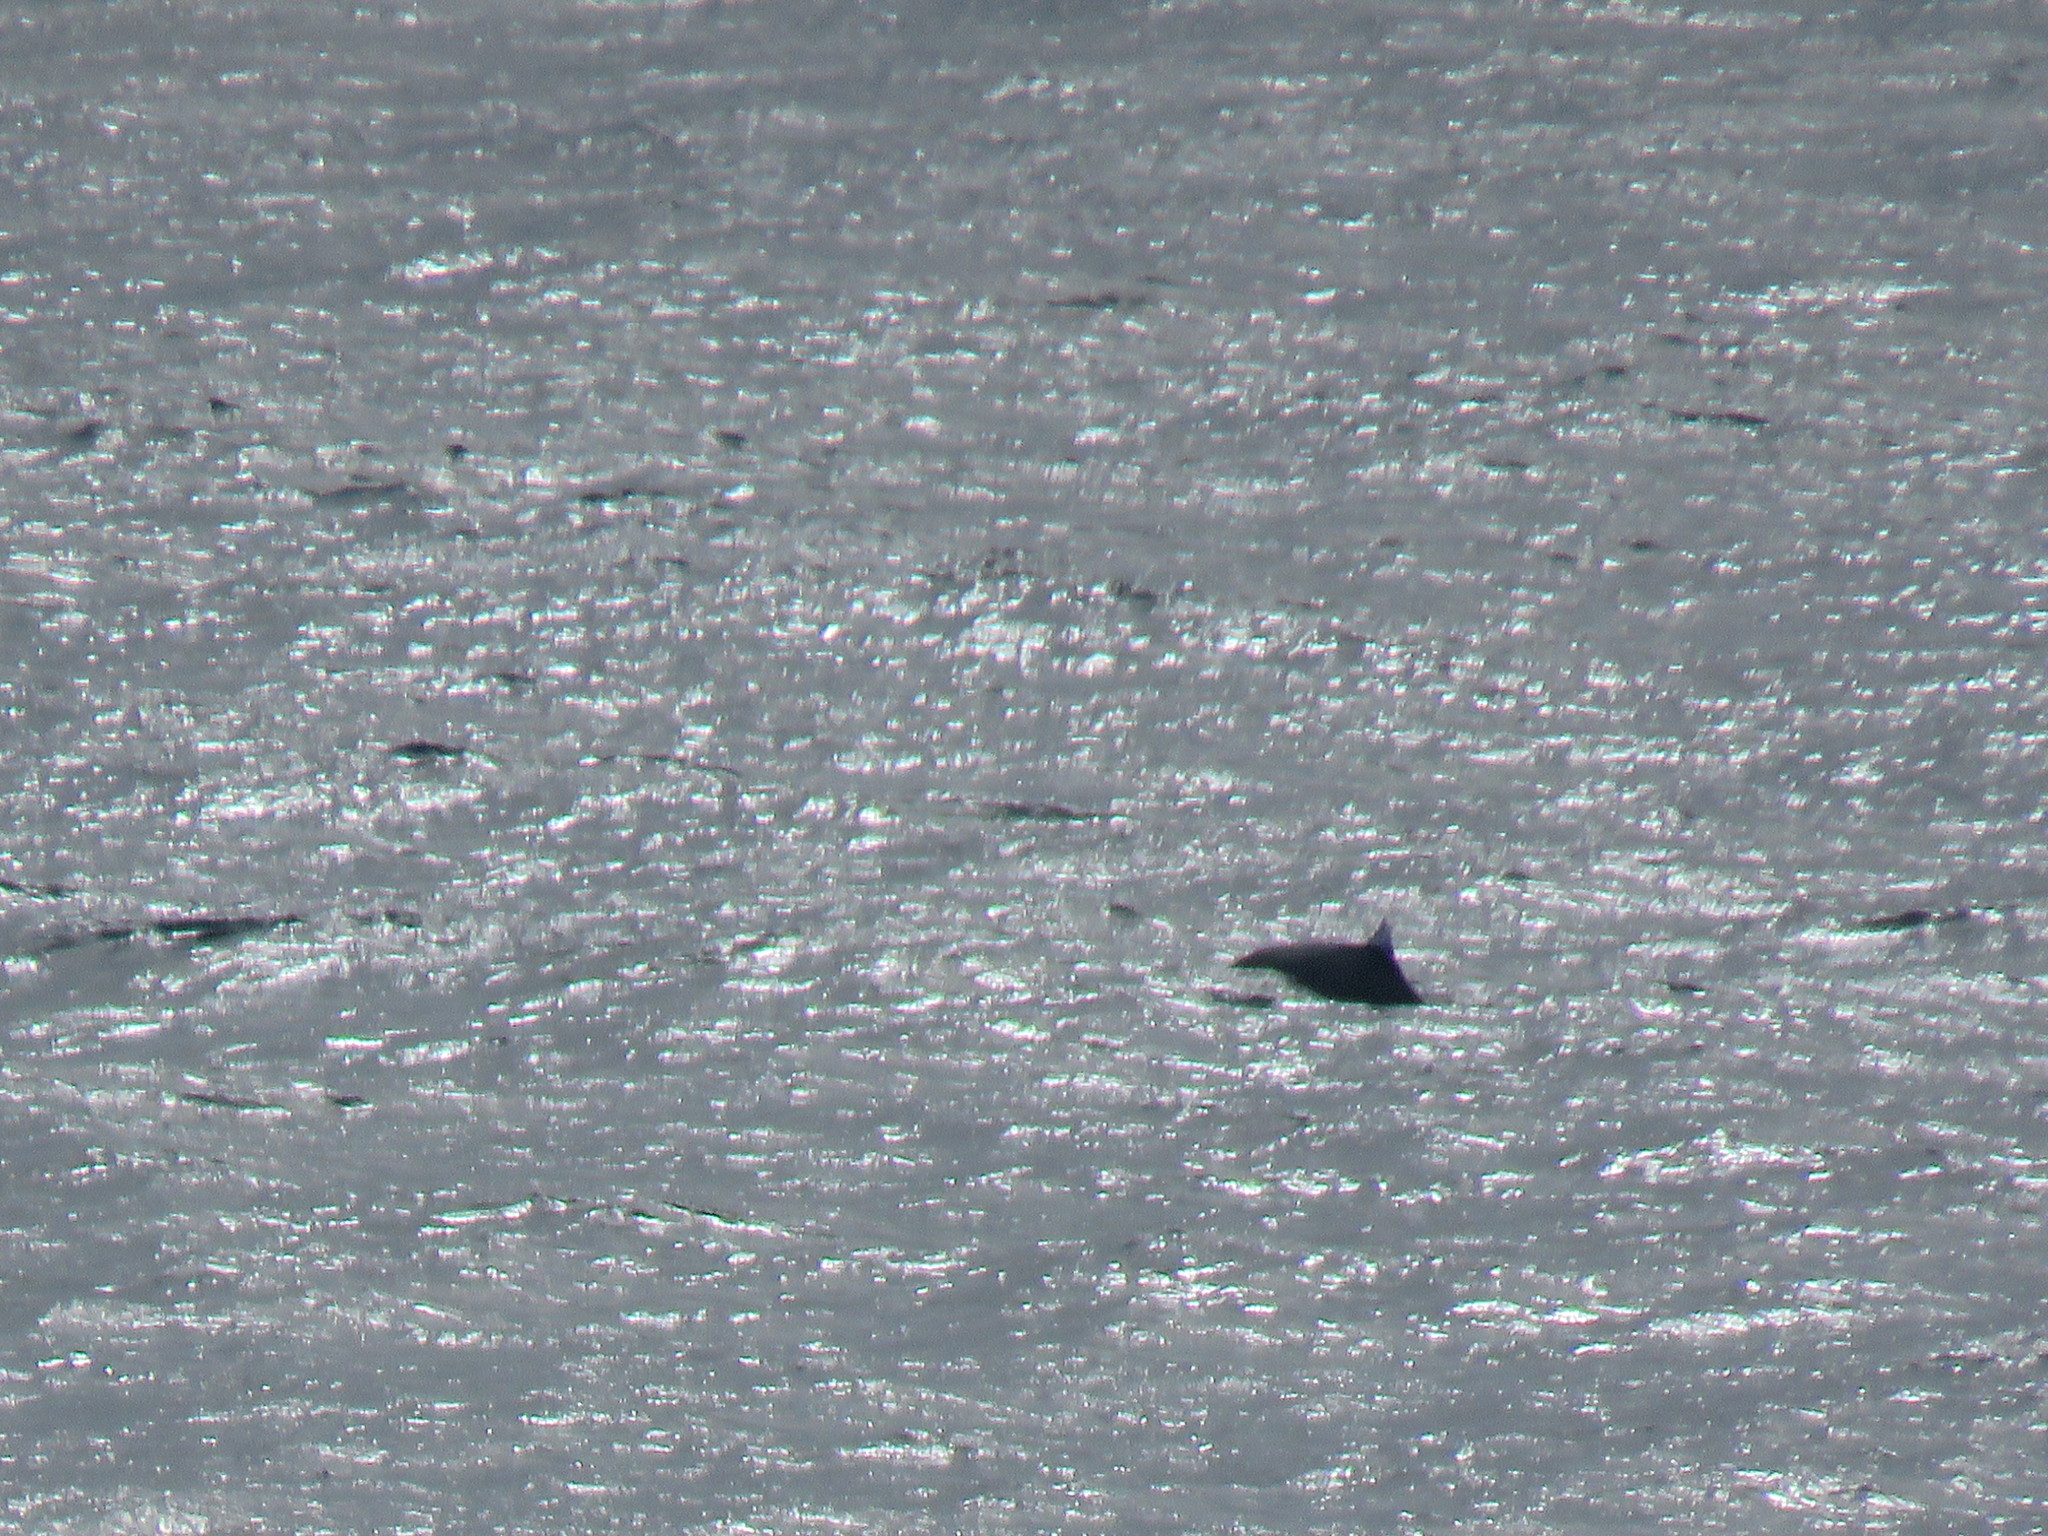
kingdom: Animalia
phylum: Chordata
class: Mammalia
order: Cetacea
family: Phocoenidae
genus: Phocoenoides
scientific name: Phocoenoides dalli
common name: Dall's porpoise
